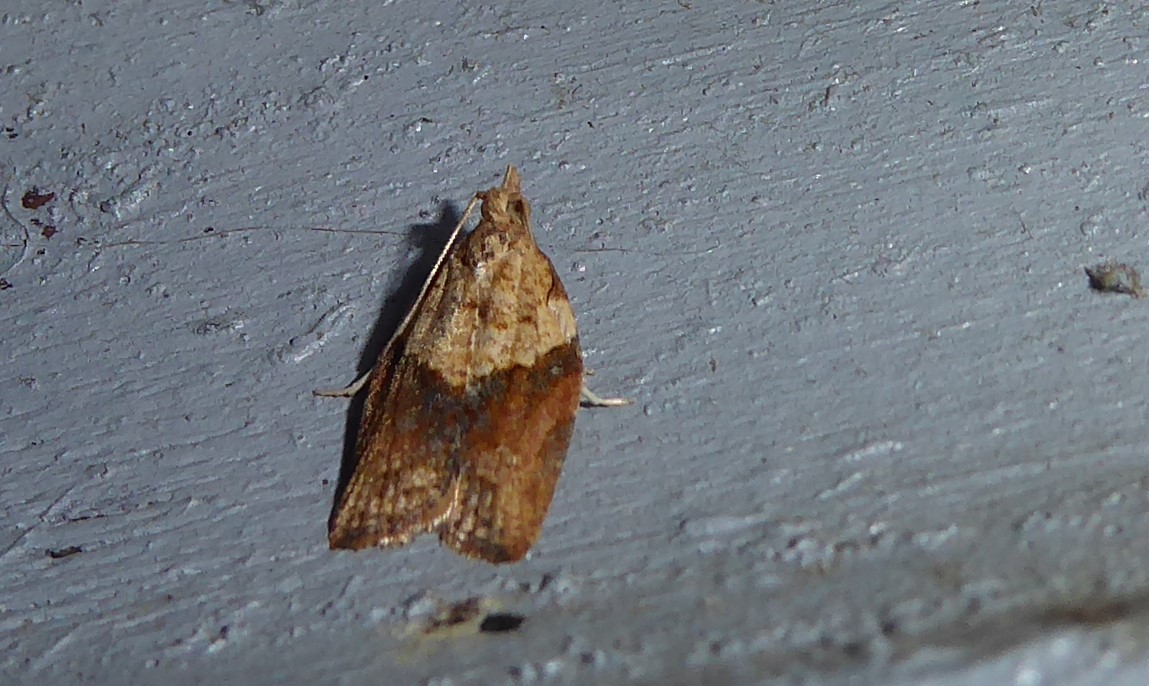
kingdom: Animalia
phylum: Arthropoda
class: Insecta
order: Lepidoptera
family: Tortricidae
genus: Epiphyas
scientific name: Epiphyas postvittana
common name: Light brown apple moth
